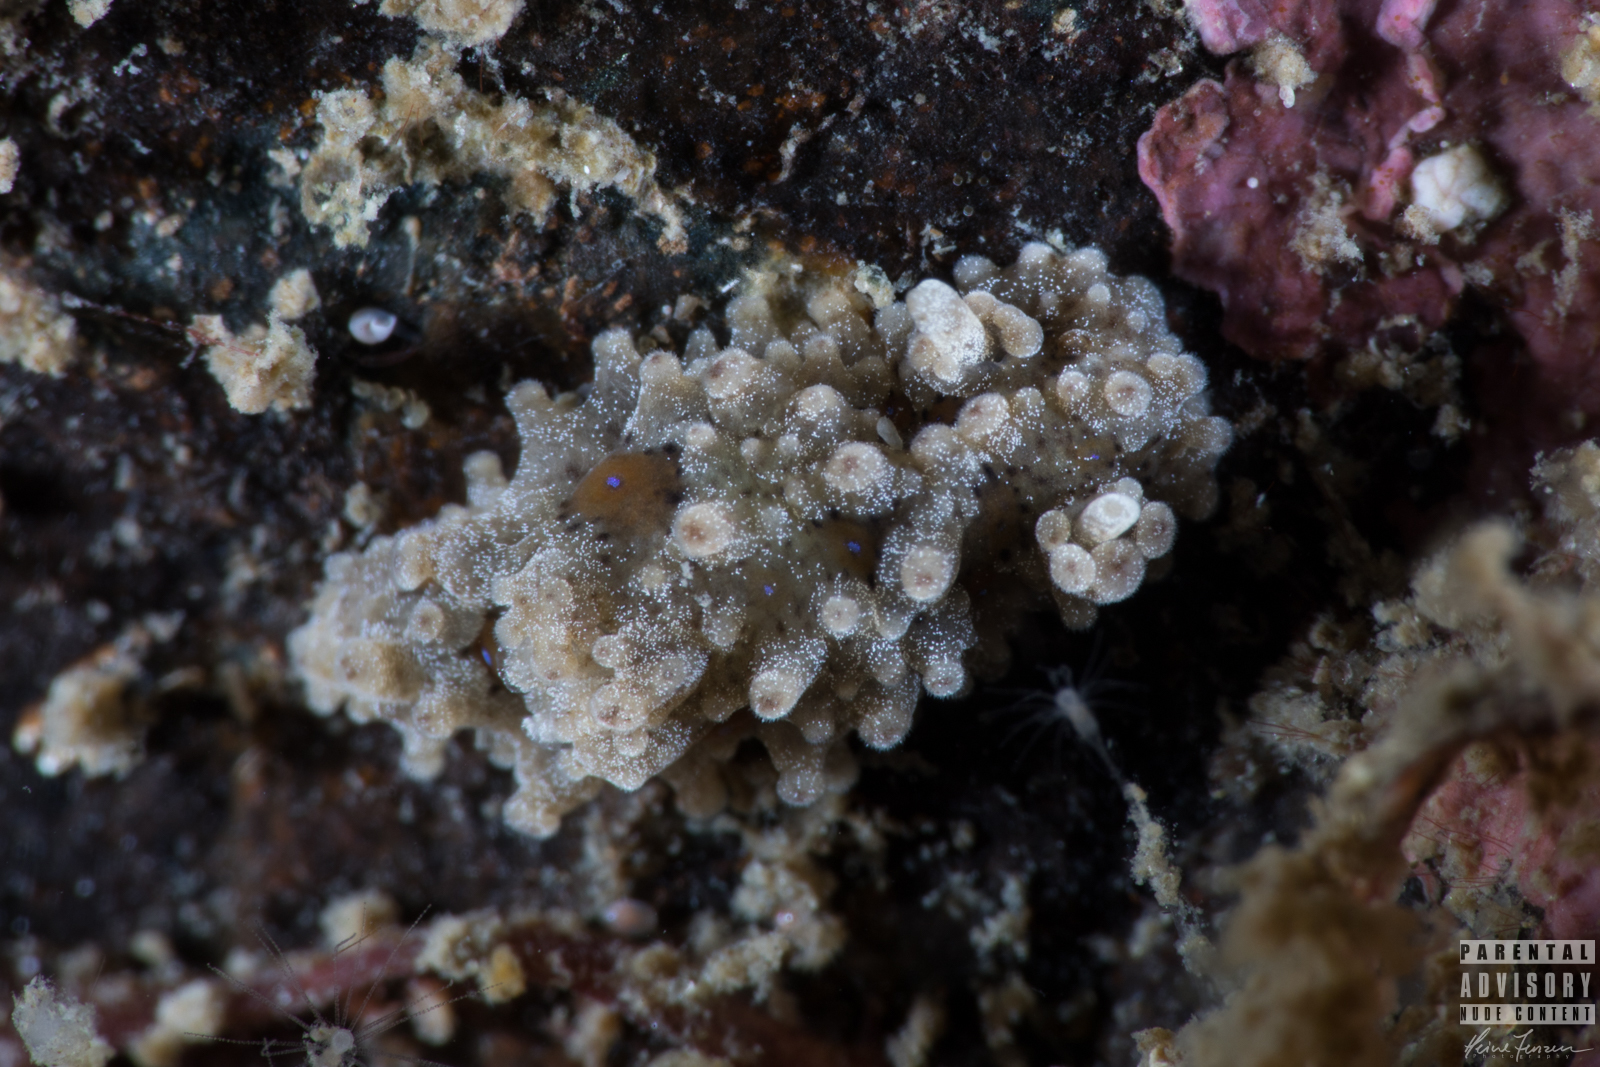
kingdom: Animalia
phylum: Mollusca
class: Gastropoda
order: Nudibranchia
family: Aegiridae
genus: Aegires
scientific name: Aegires punctilucens
